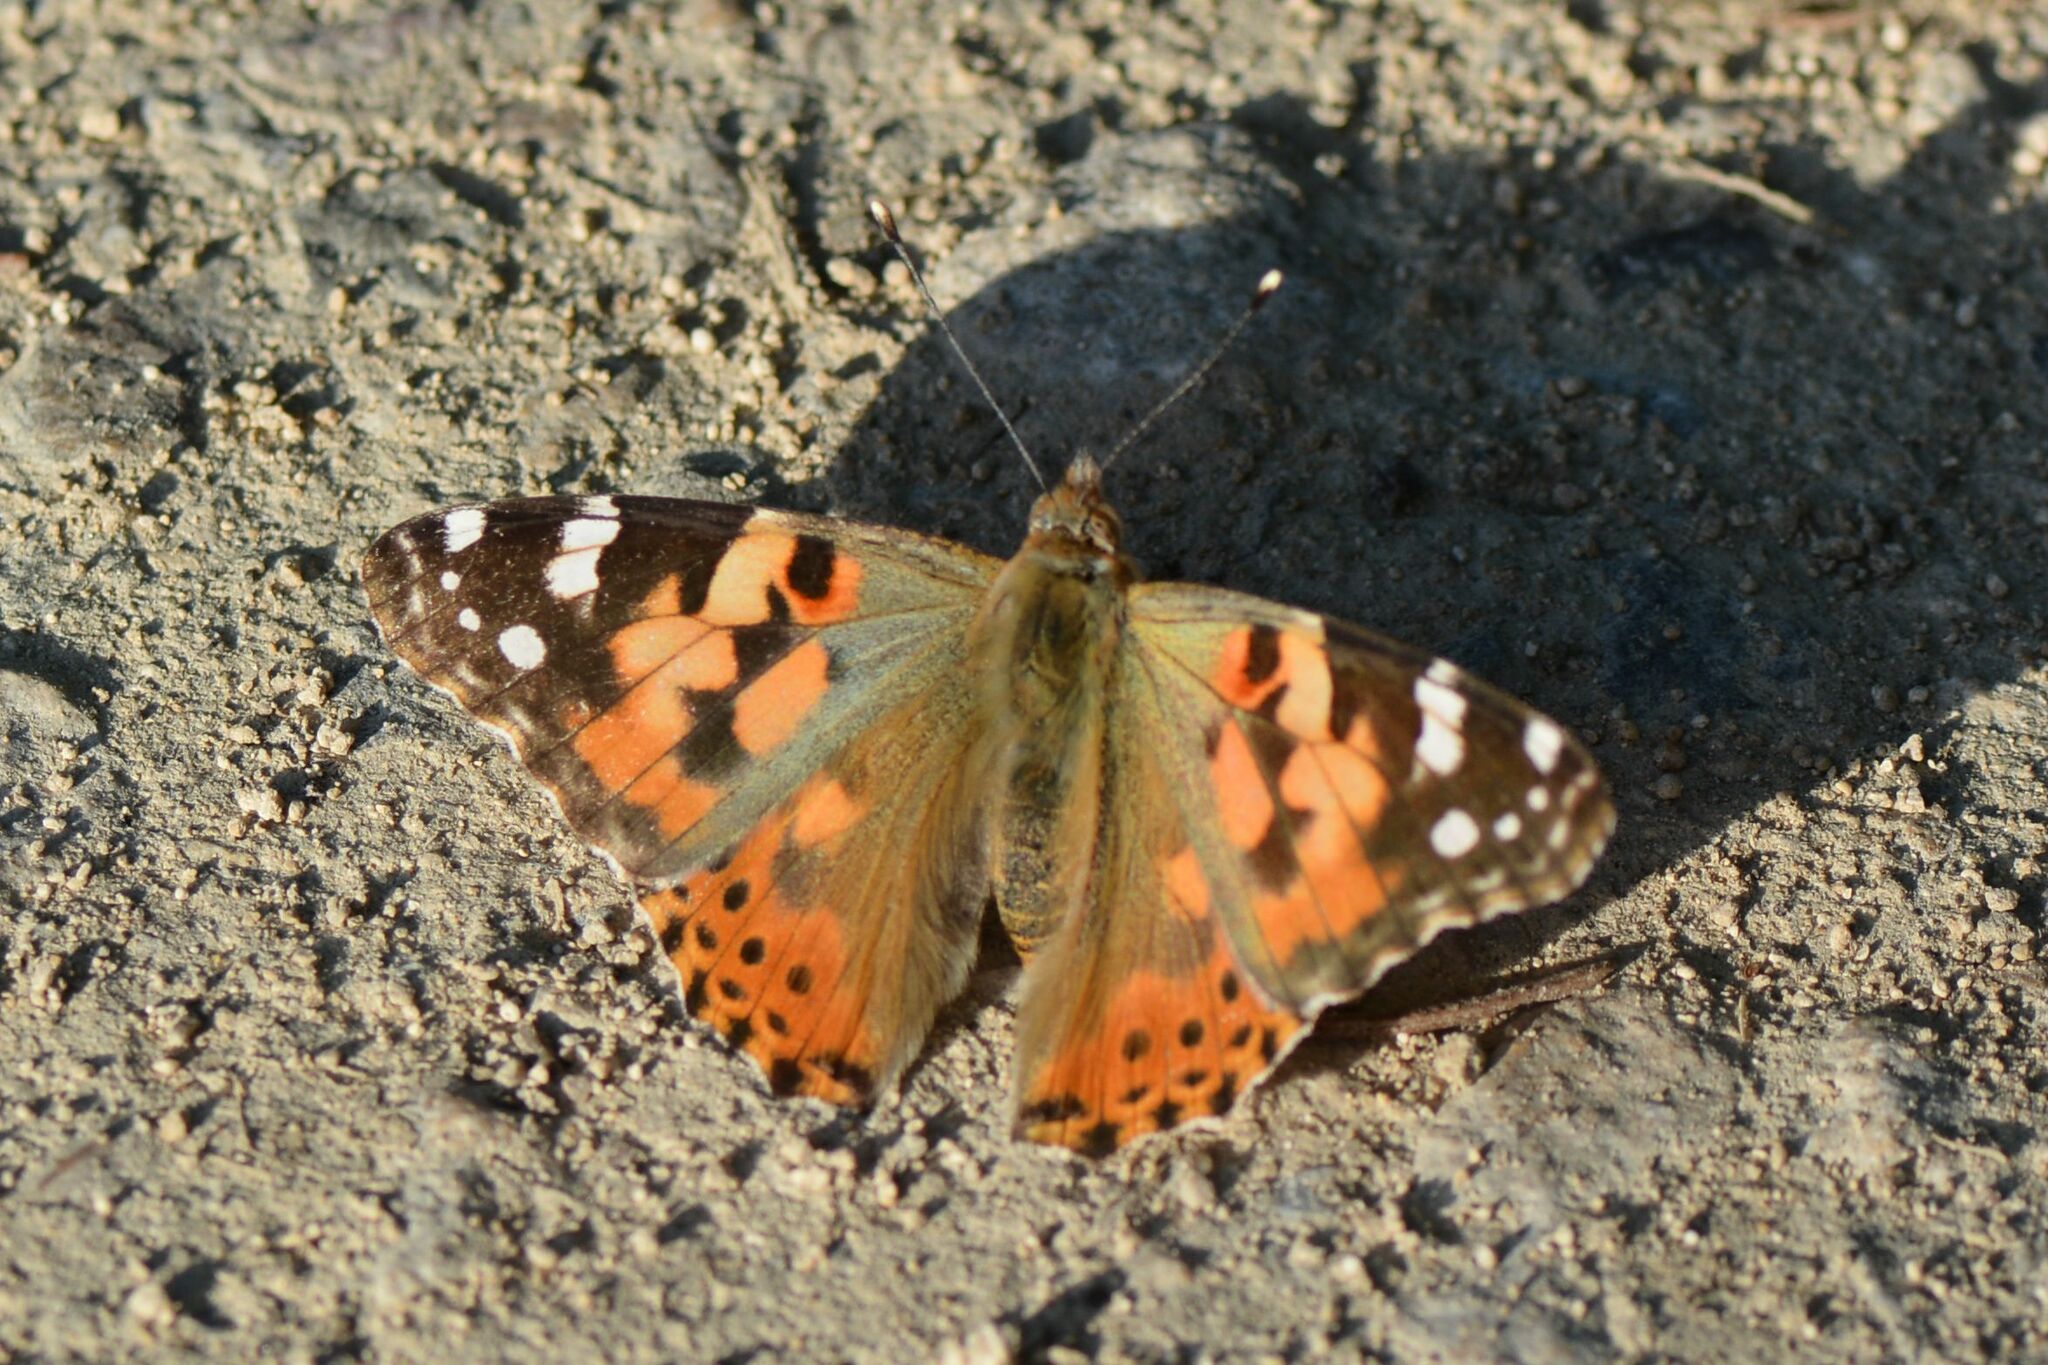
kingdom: Animalia
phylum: Arthropoda
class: Insecta
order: Lepidoptera
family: Nymphalidae
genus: Vanessa
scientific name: Vanessa cardui
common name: Painted lady
